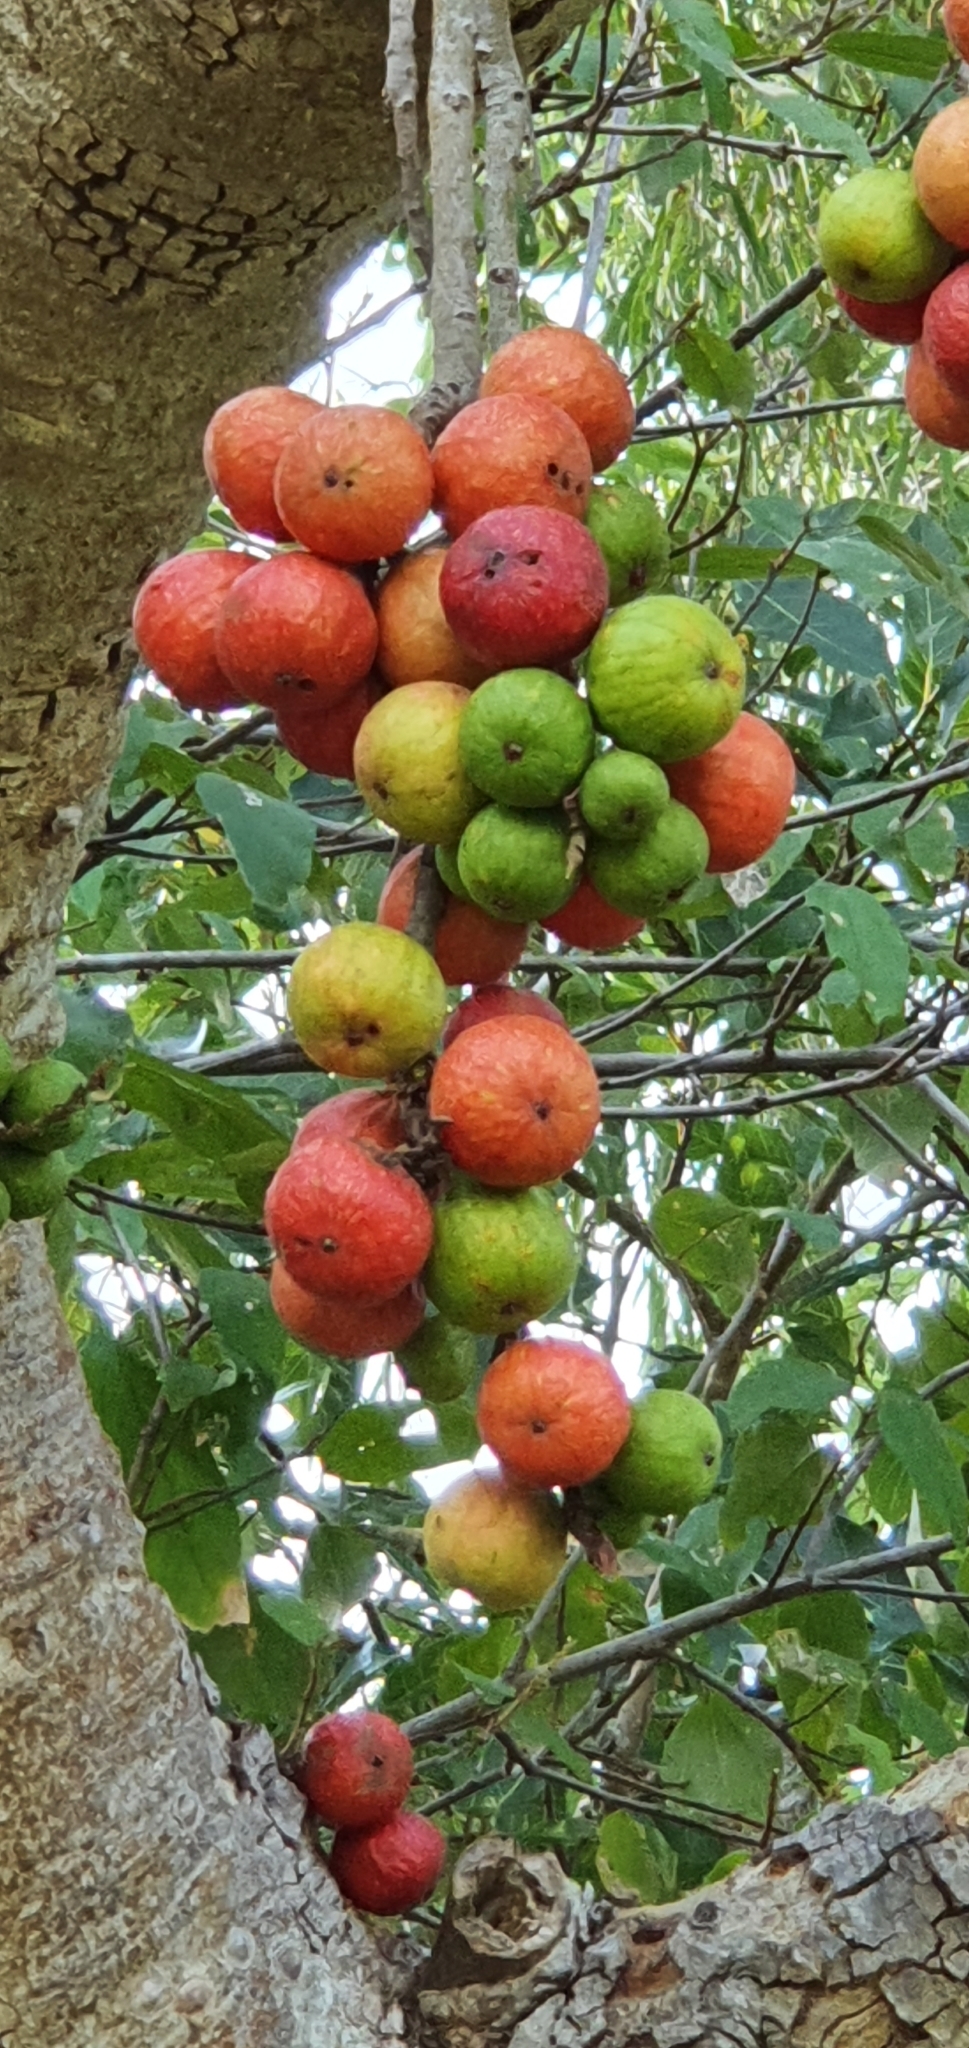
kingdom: Plantae
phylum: Tracheophyta
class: Magnoliopsida
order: Rosales
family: Moraceae
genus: Ficus
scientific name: Ficus racemosa
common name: Cluster fig
